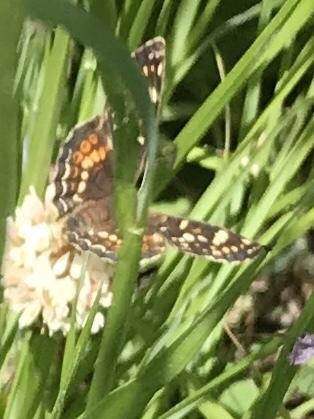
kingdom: Animalia
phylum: Arthropoda
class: Insecta
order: Lepidoptera
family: Nymphalidae
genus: Phyciodes
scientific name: Phyciodes tharos
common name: Pearl crescent
